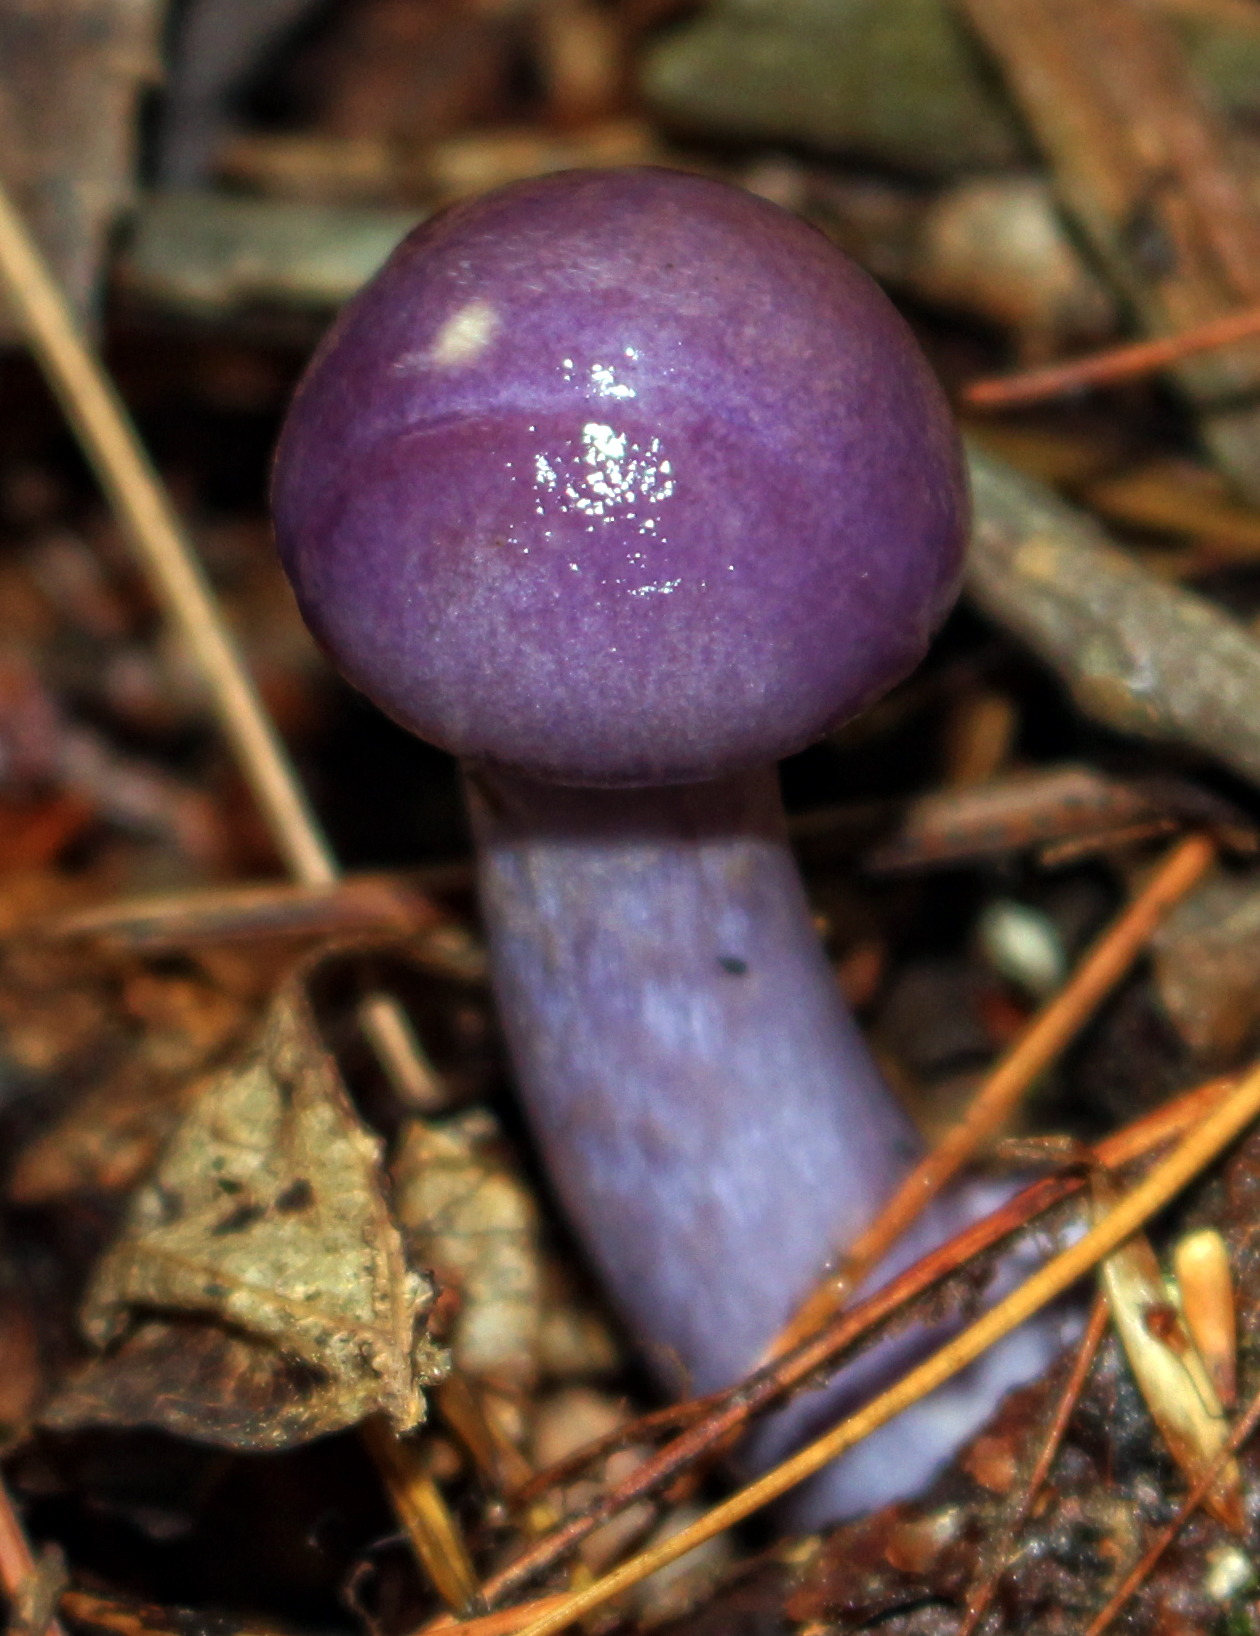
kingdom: Fungi
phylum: Basidiomycota
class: Agaricomycetes
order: Agaricales
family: Cortinariaceae
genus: Cortinarius
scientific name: Cortinarius iodes
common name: Viscid violet cort
